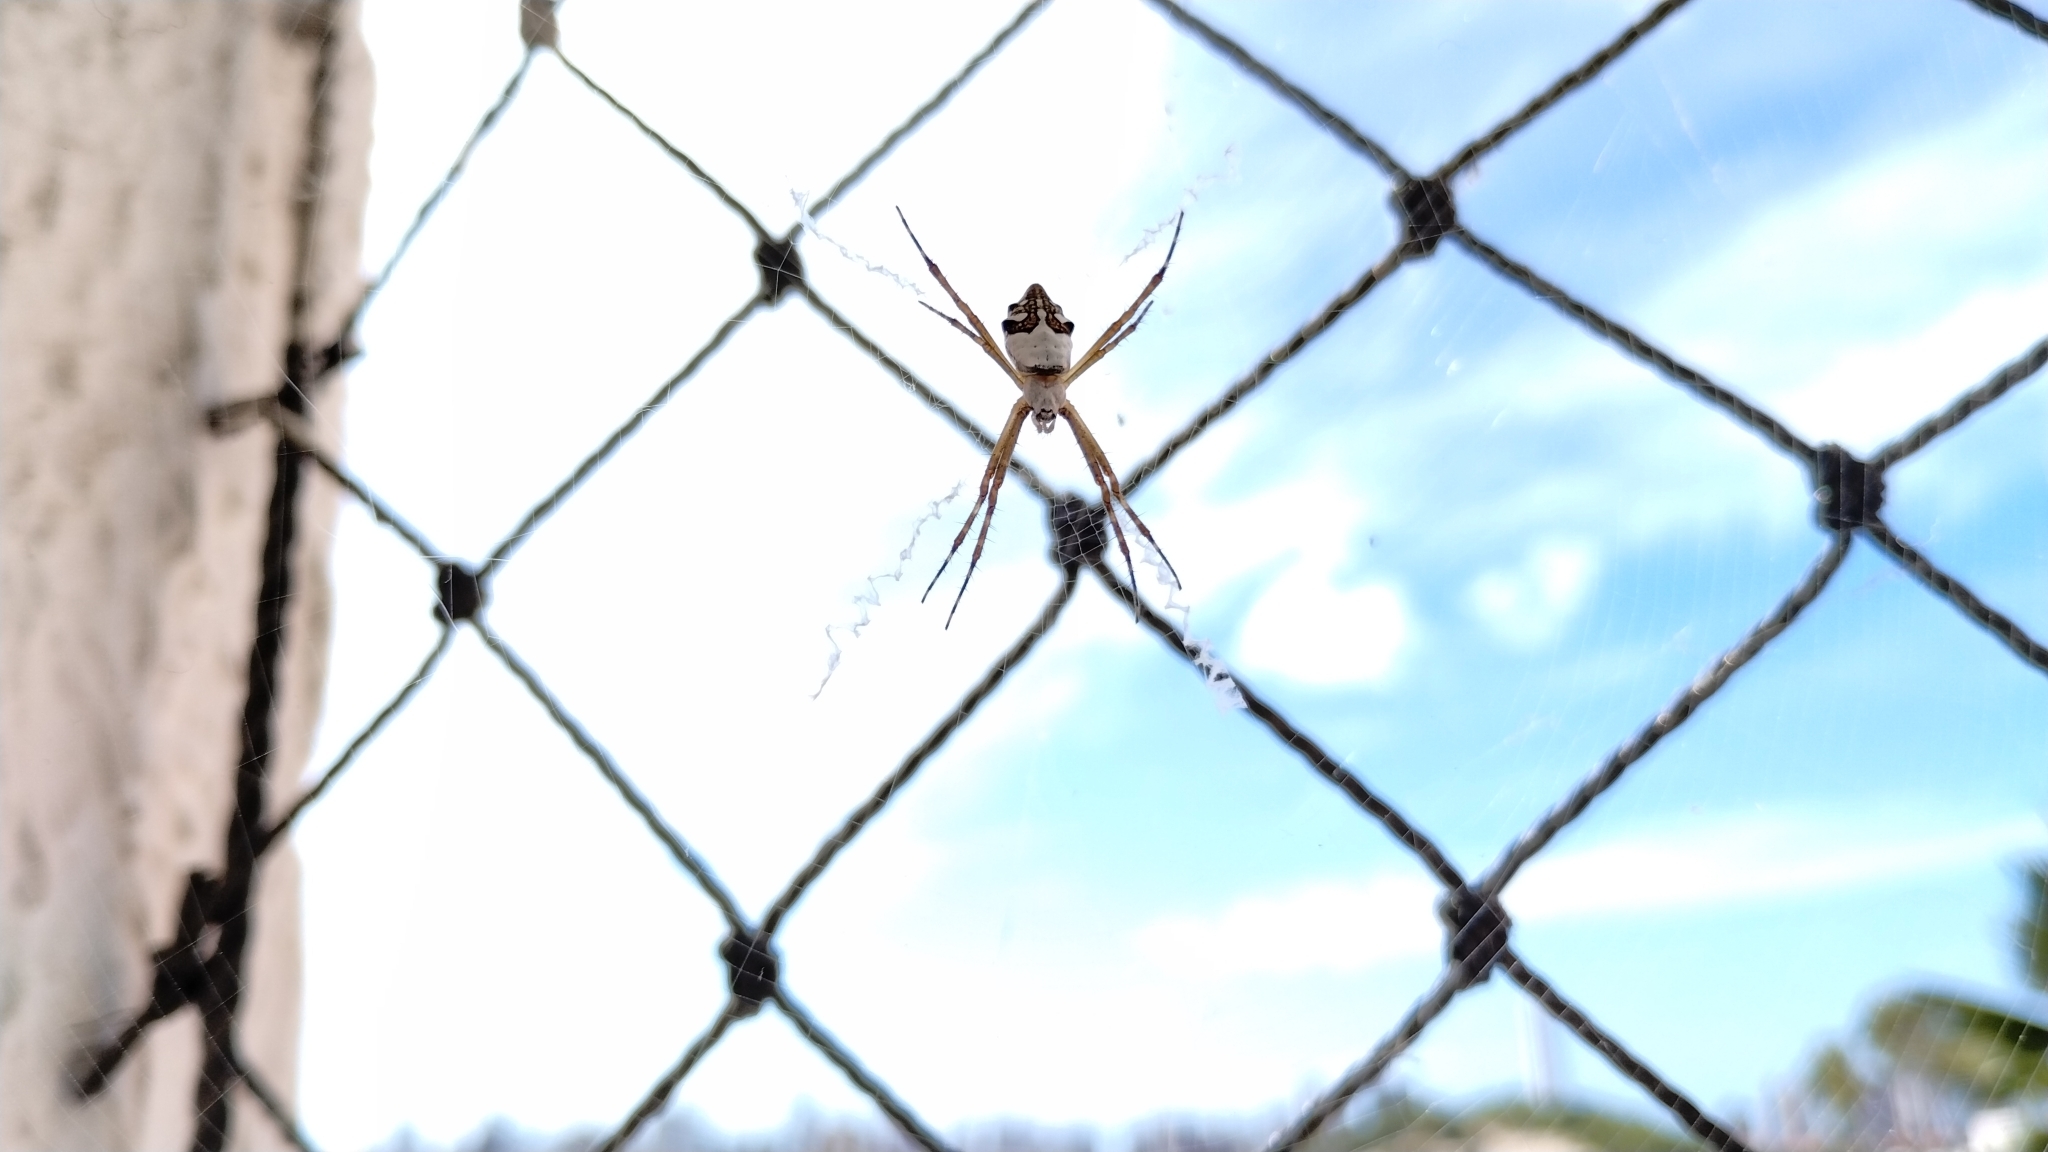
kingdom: Animalia
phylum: Arthropoda
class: Arachnida
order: Araneae
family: Araneidae
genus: Argiope
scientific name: Argiope argentata
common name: Orb weavers
